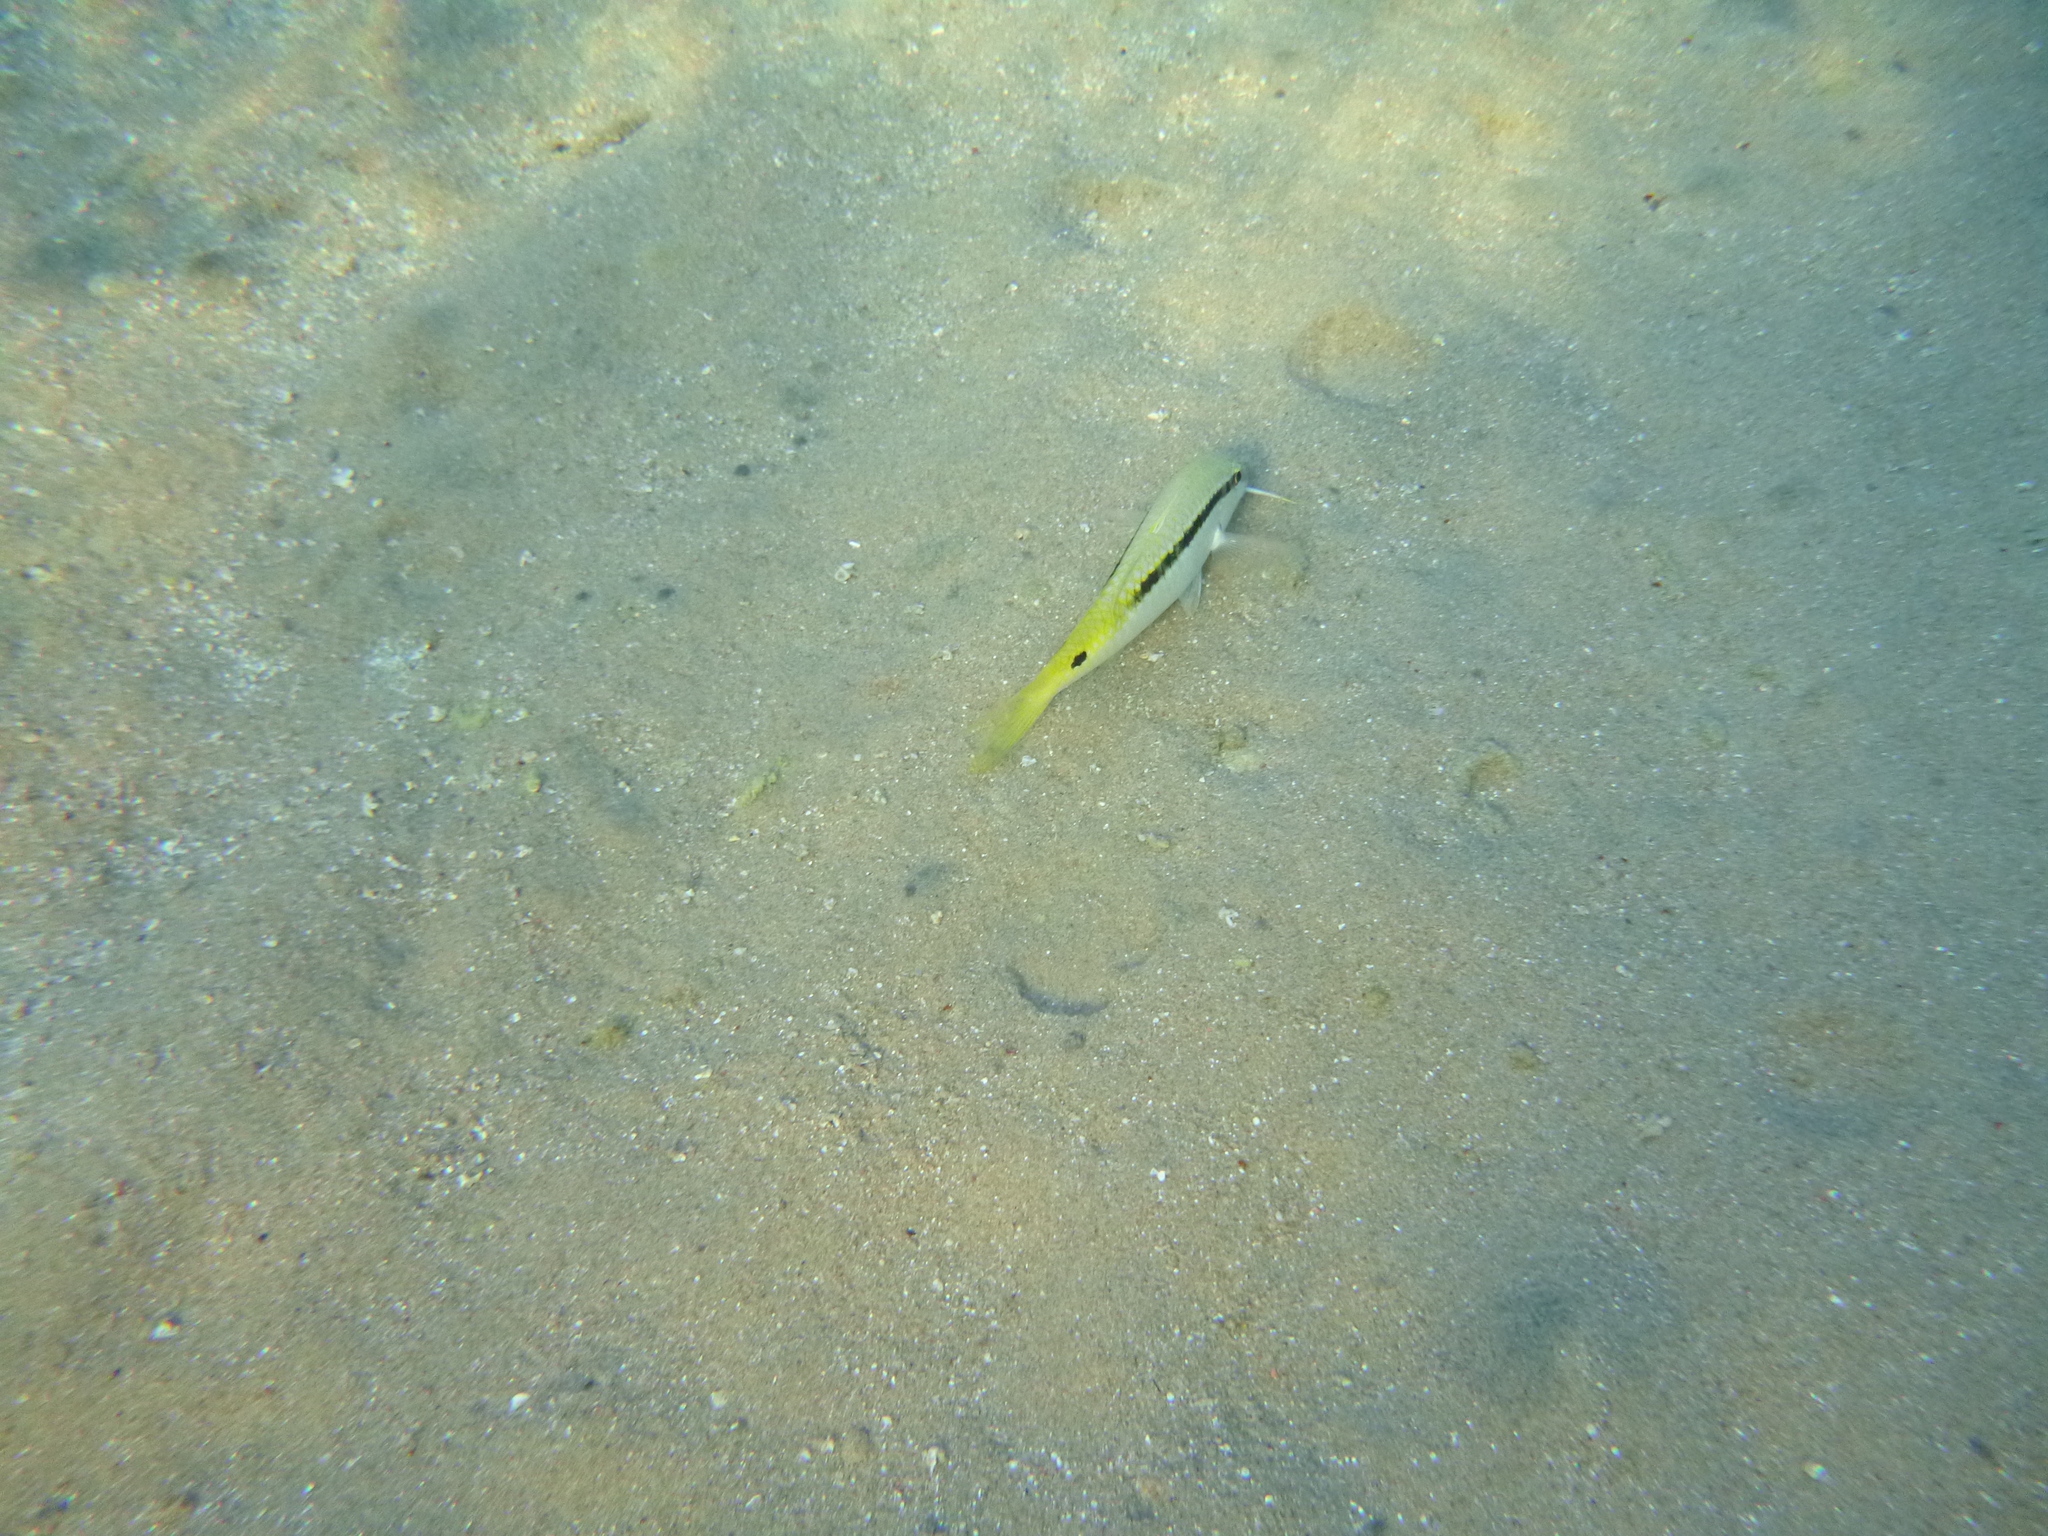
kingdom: Animalia
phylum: Chordata
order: Perciformes
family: Mullidae
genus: Parupeneus
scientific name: Parupeneus forsskali
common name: Red sea goatfish
